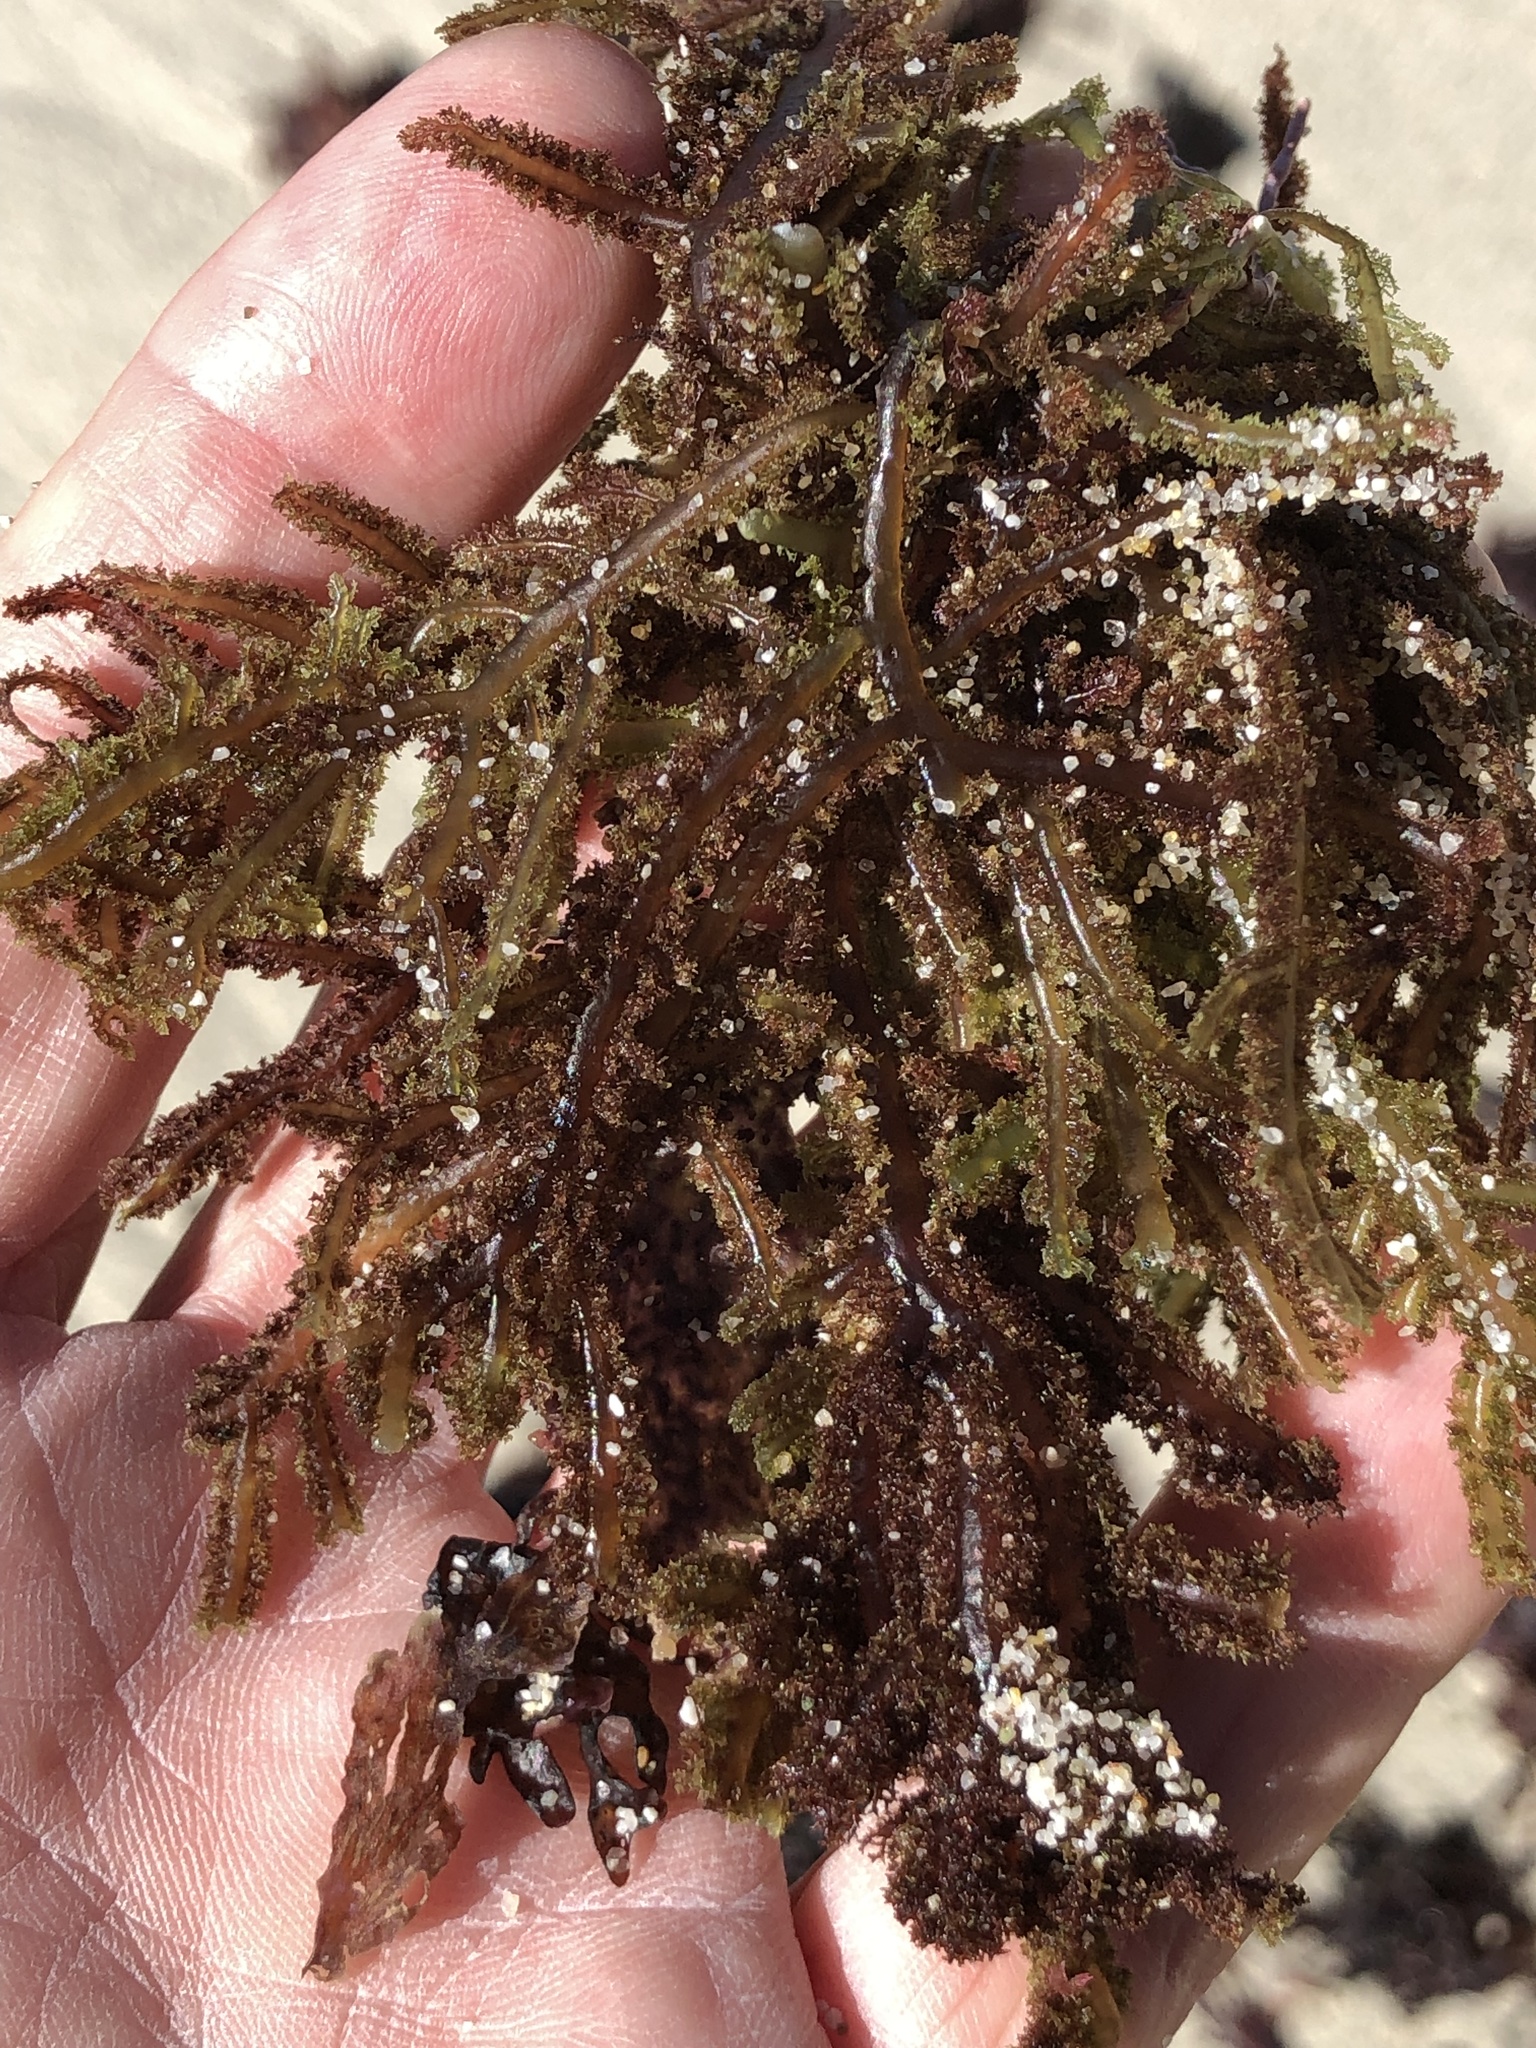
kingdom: Plantae
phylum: Rhodophyta
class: Florideophyceae
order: Ceramiales
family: Wrangeliaceae
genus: Neoptilota
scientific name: Neoptilota densa
